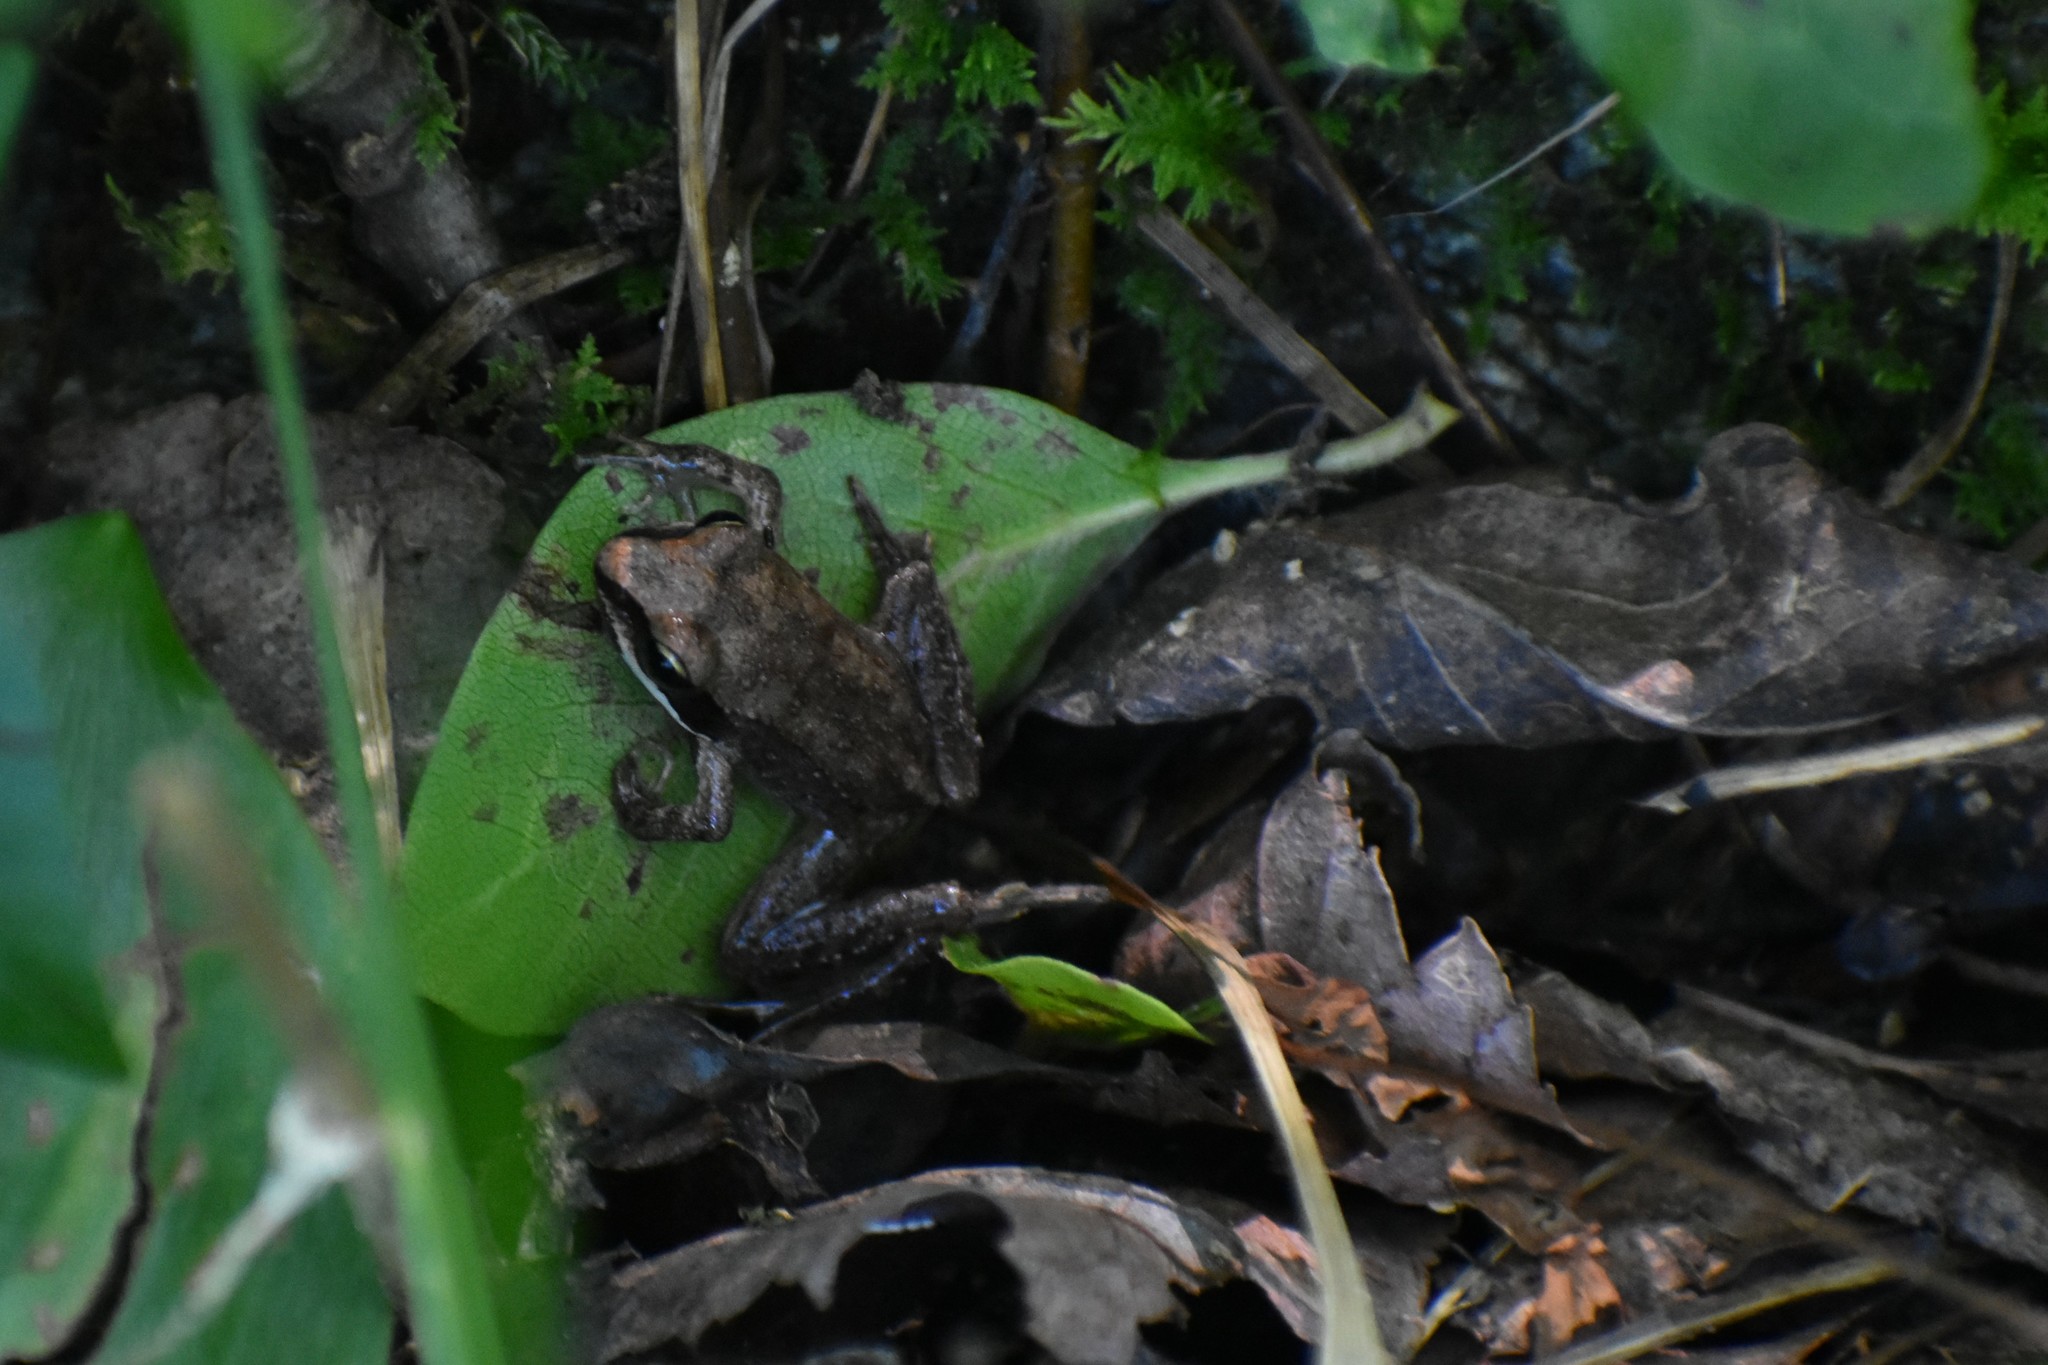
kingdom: Animalia
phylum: Chordata
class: Amphibia
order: Anura
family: Ranidae
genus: Lithobates
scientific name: Lithobates sylvaticus
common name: Wood frog
